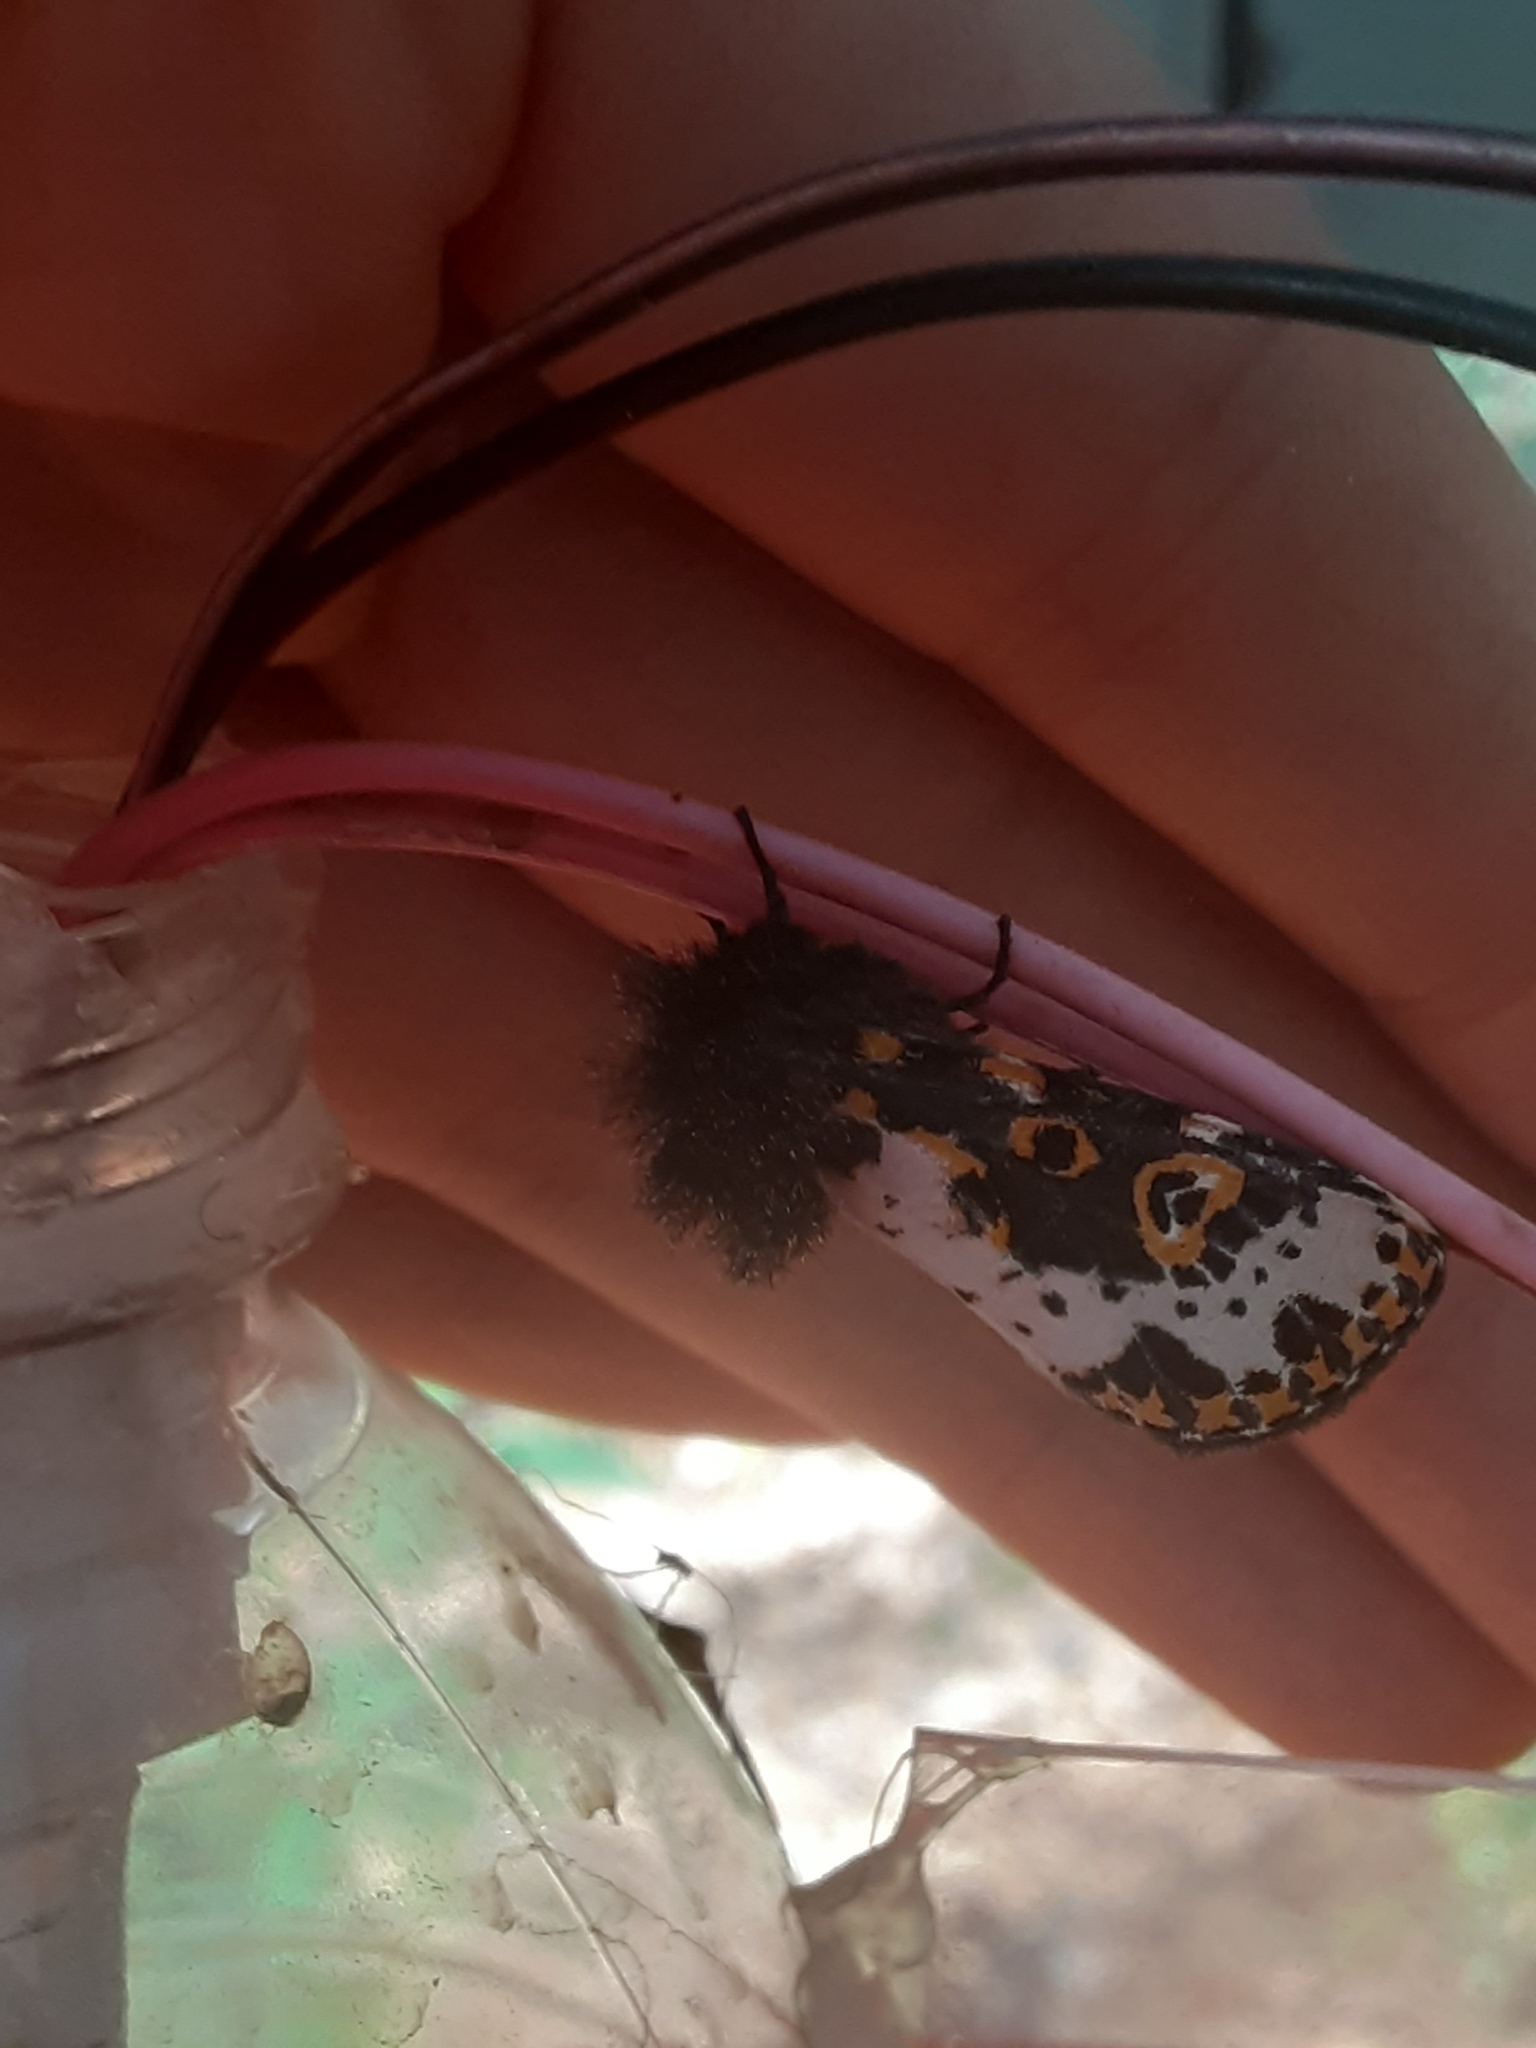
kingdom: Animalia
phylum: Arthropoda
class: Insecta
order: Lepidoptera
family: Noctuidae
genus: Xanthopastis
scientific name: Xanthopastis regnatrix
